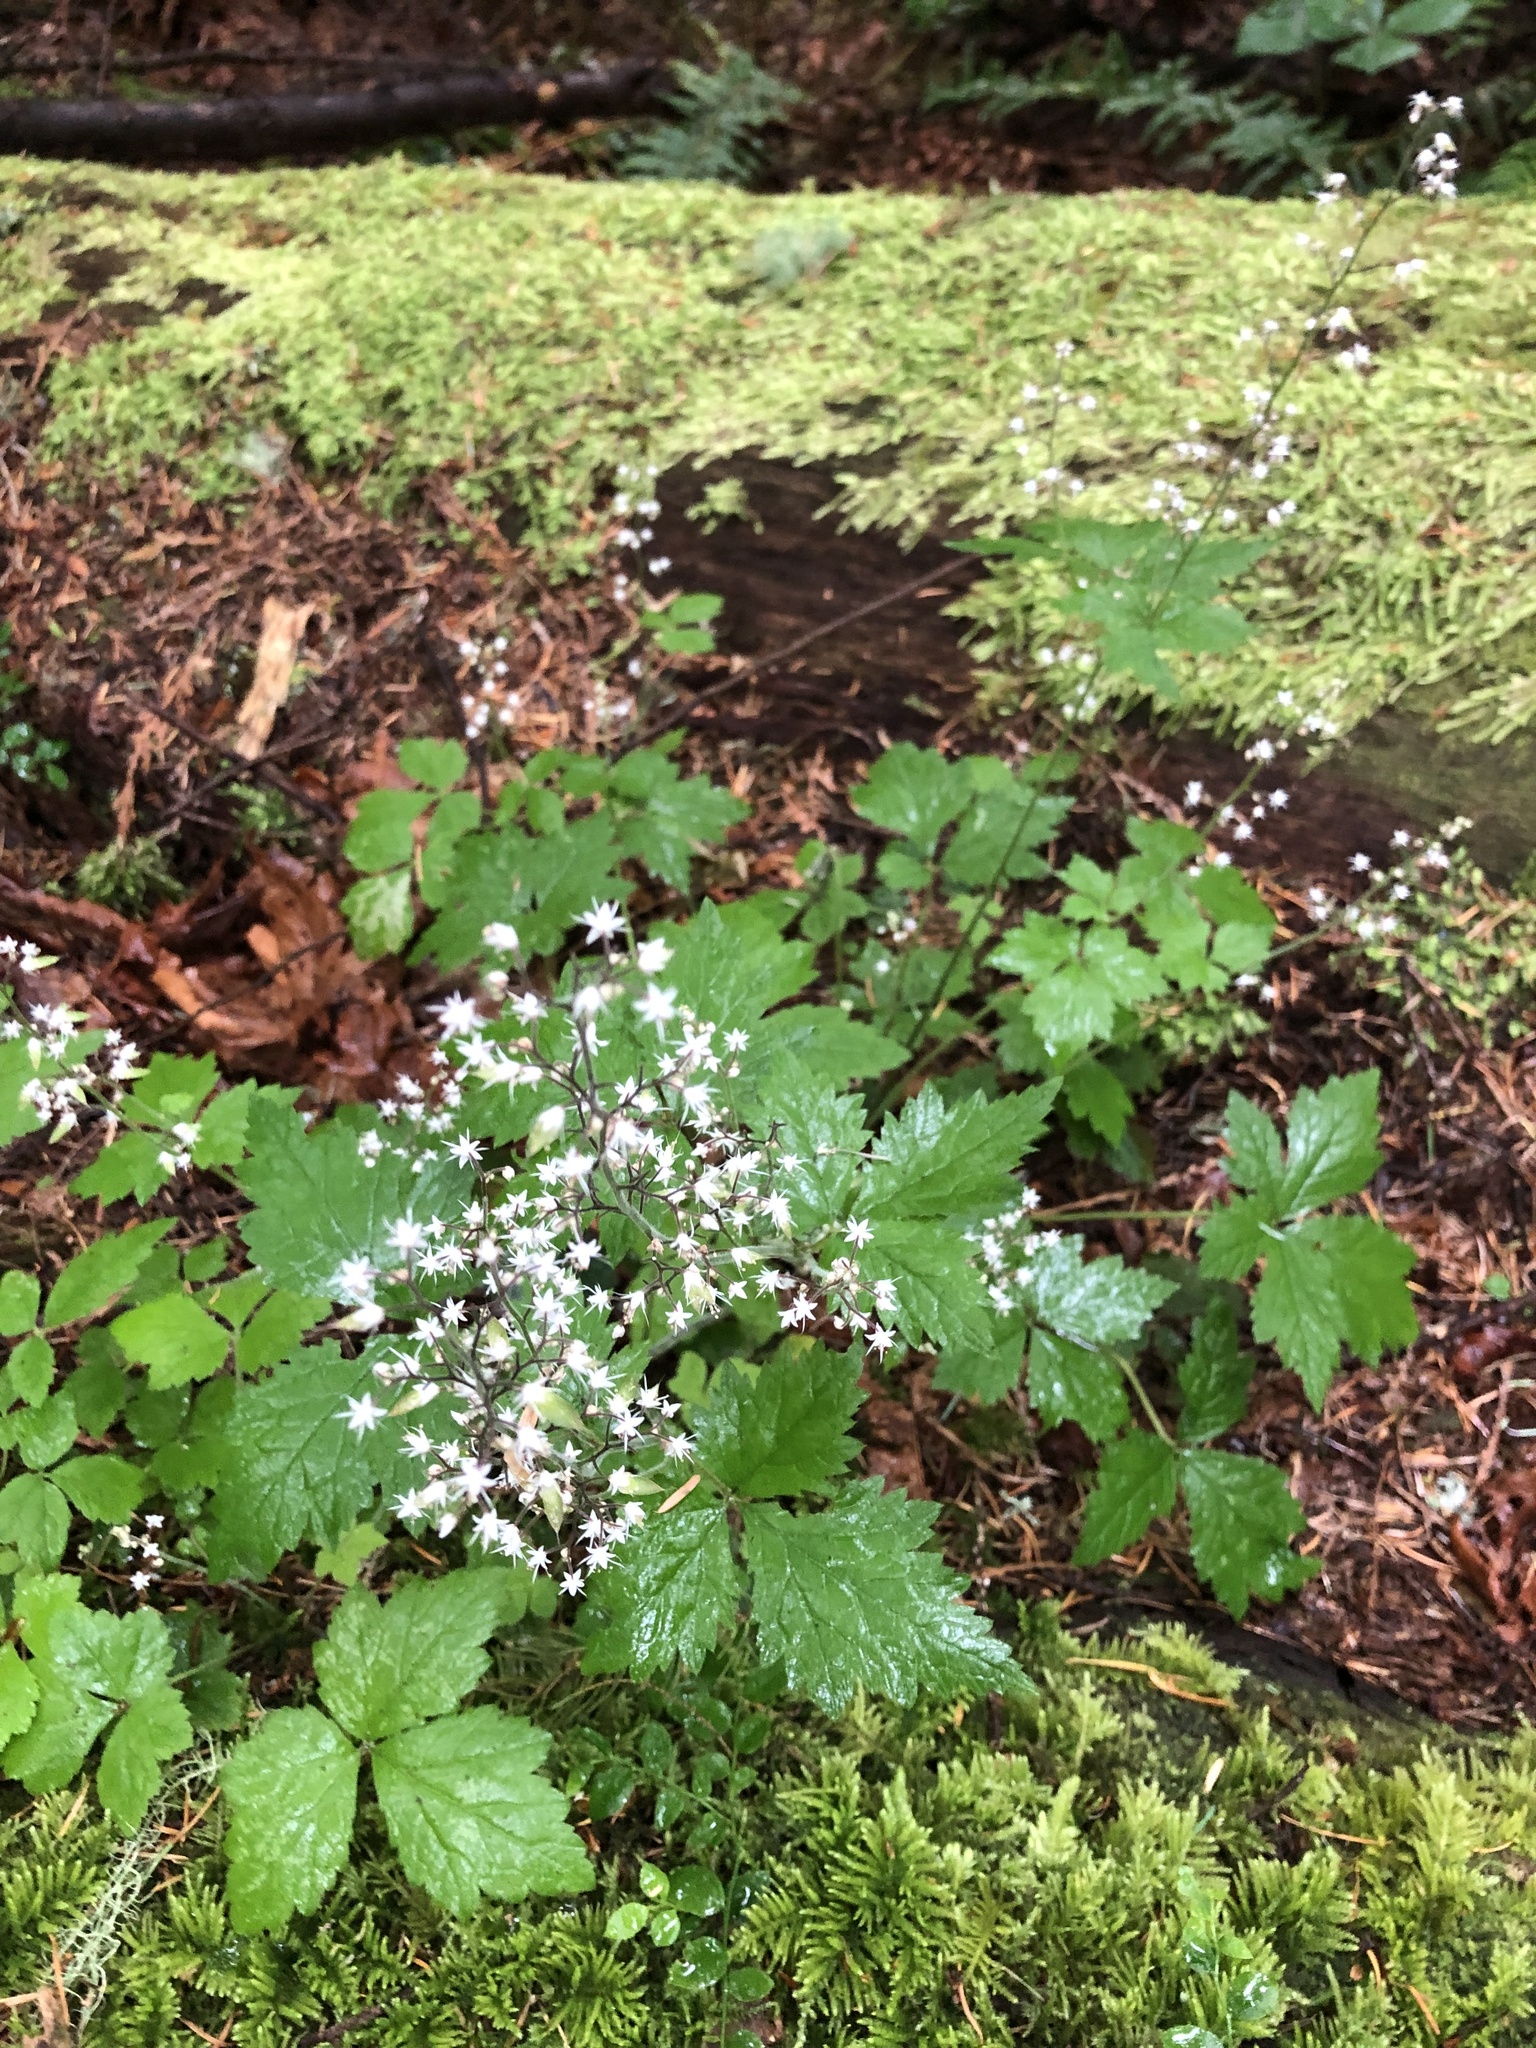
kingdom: Plantae
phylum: Tracheophyta
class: Magnoliopsida
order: Saxifragales
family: Saxifragaceae
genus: Tiarella
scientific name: Tiarella trifoliata
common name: Sugar-scoop
